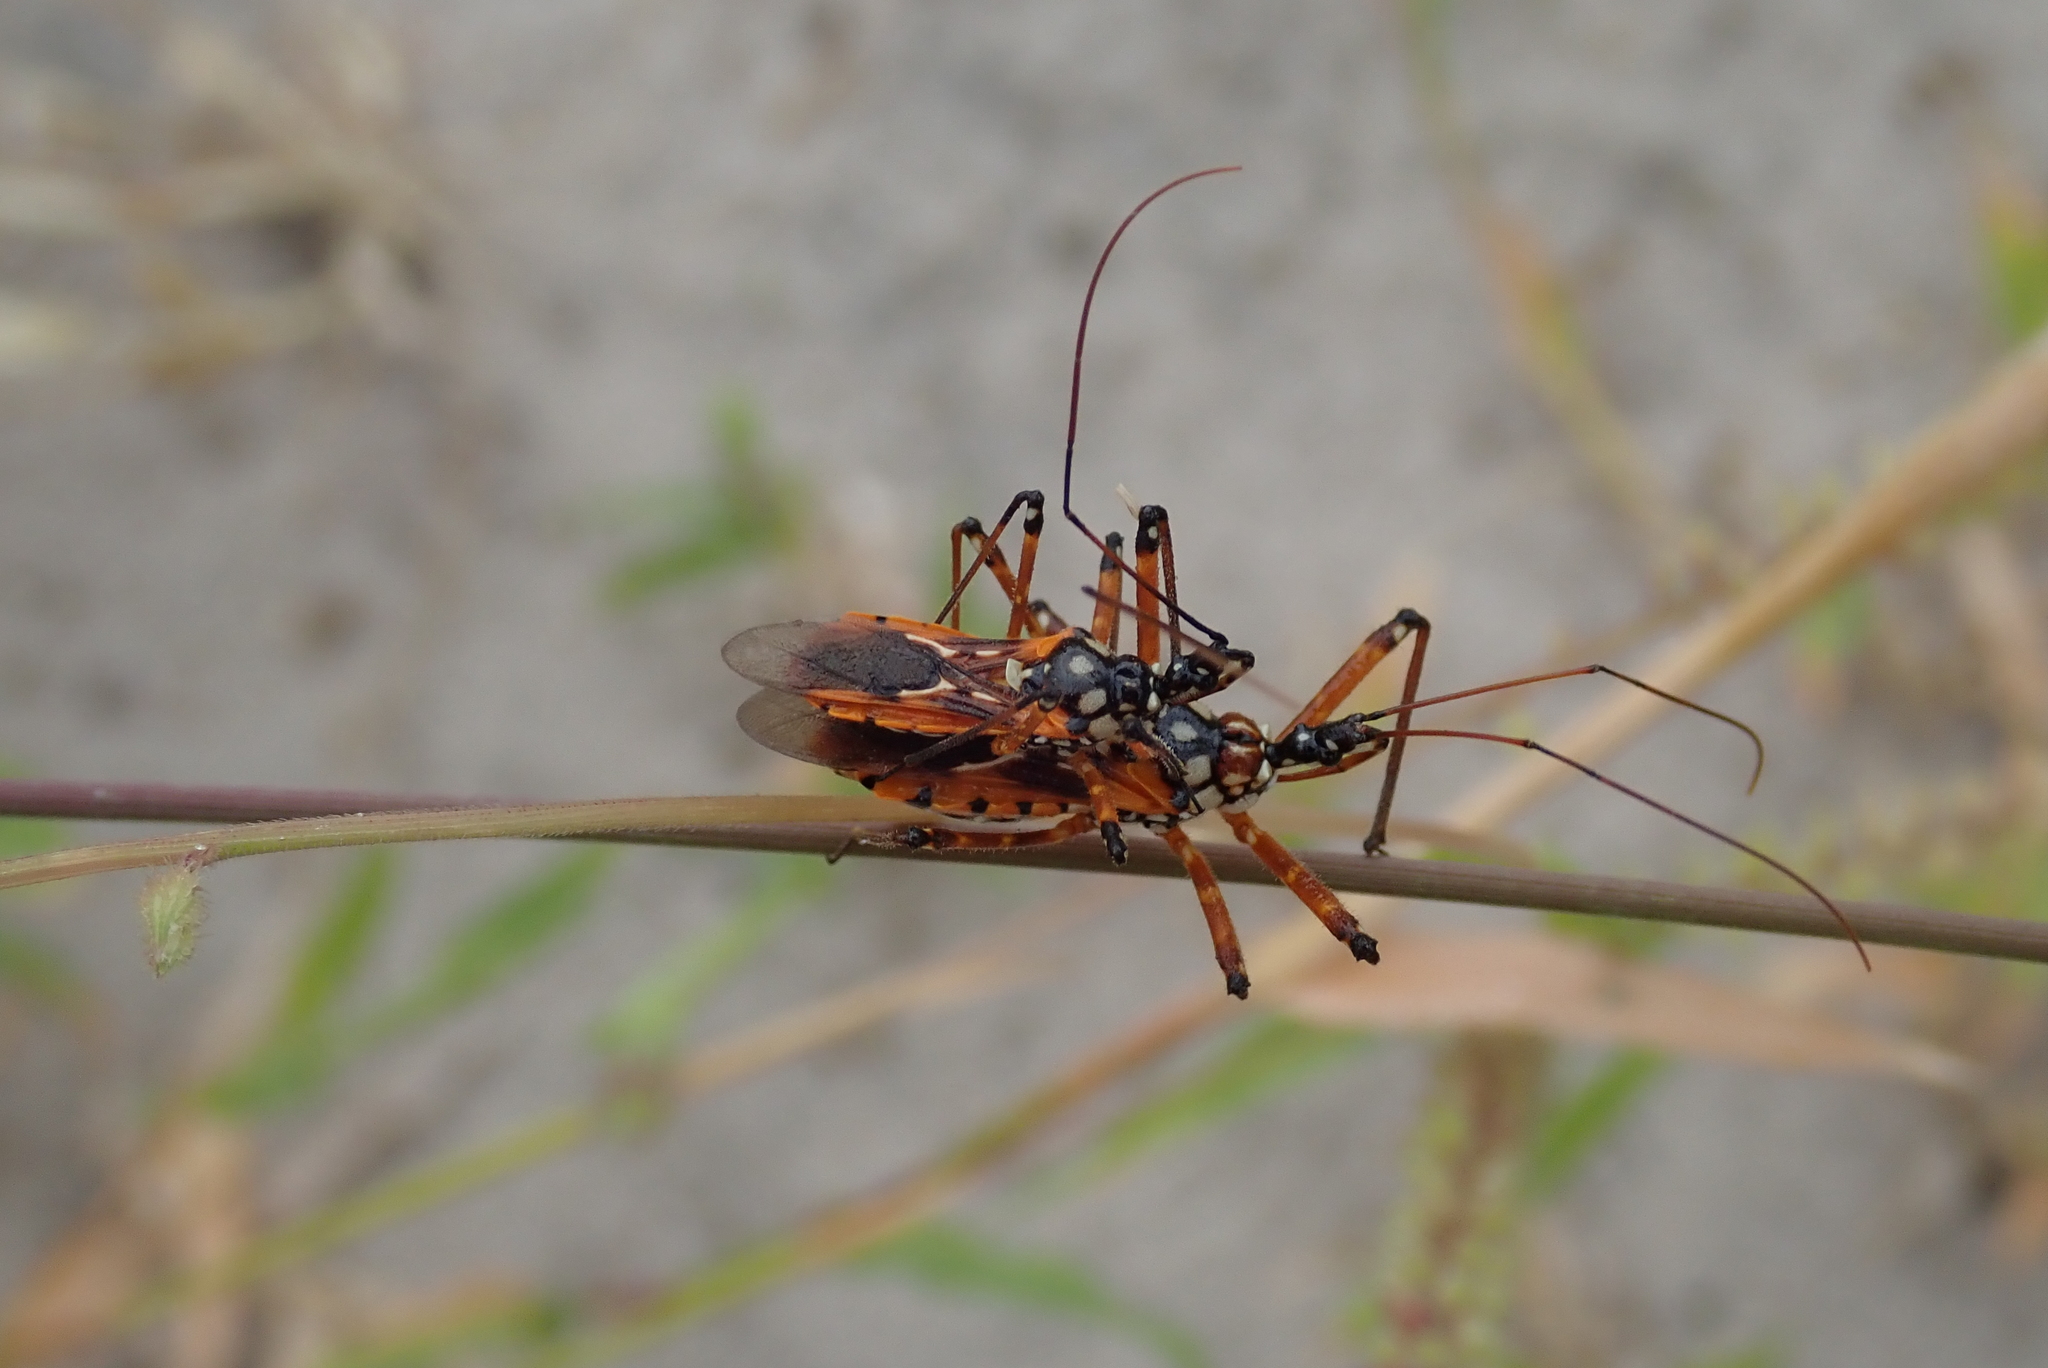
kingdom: Animalia
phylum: Arthropoda
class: Insecta
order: Hemiptera
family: Reduviidae
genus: Cosmolestes
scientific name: Cosmolestes pictus
